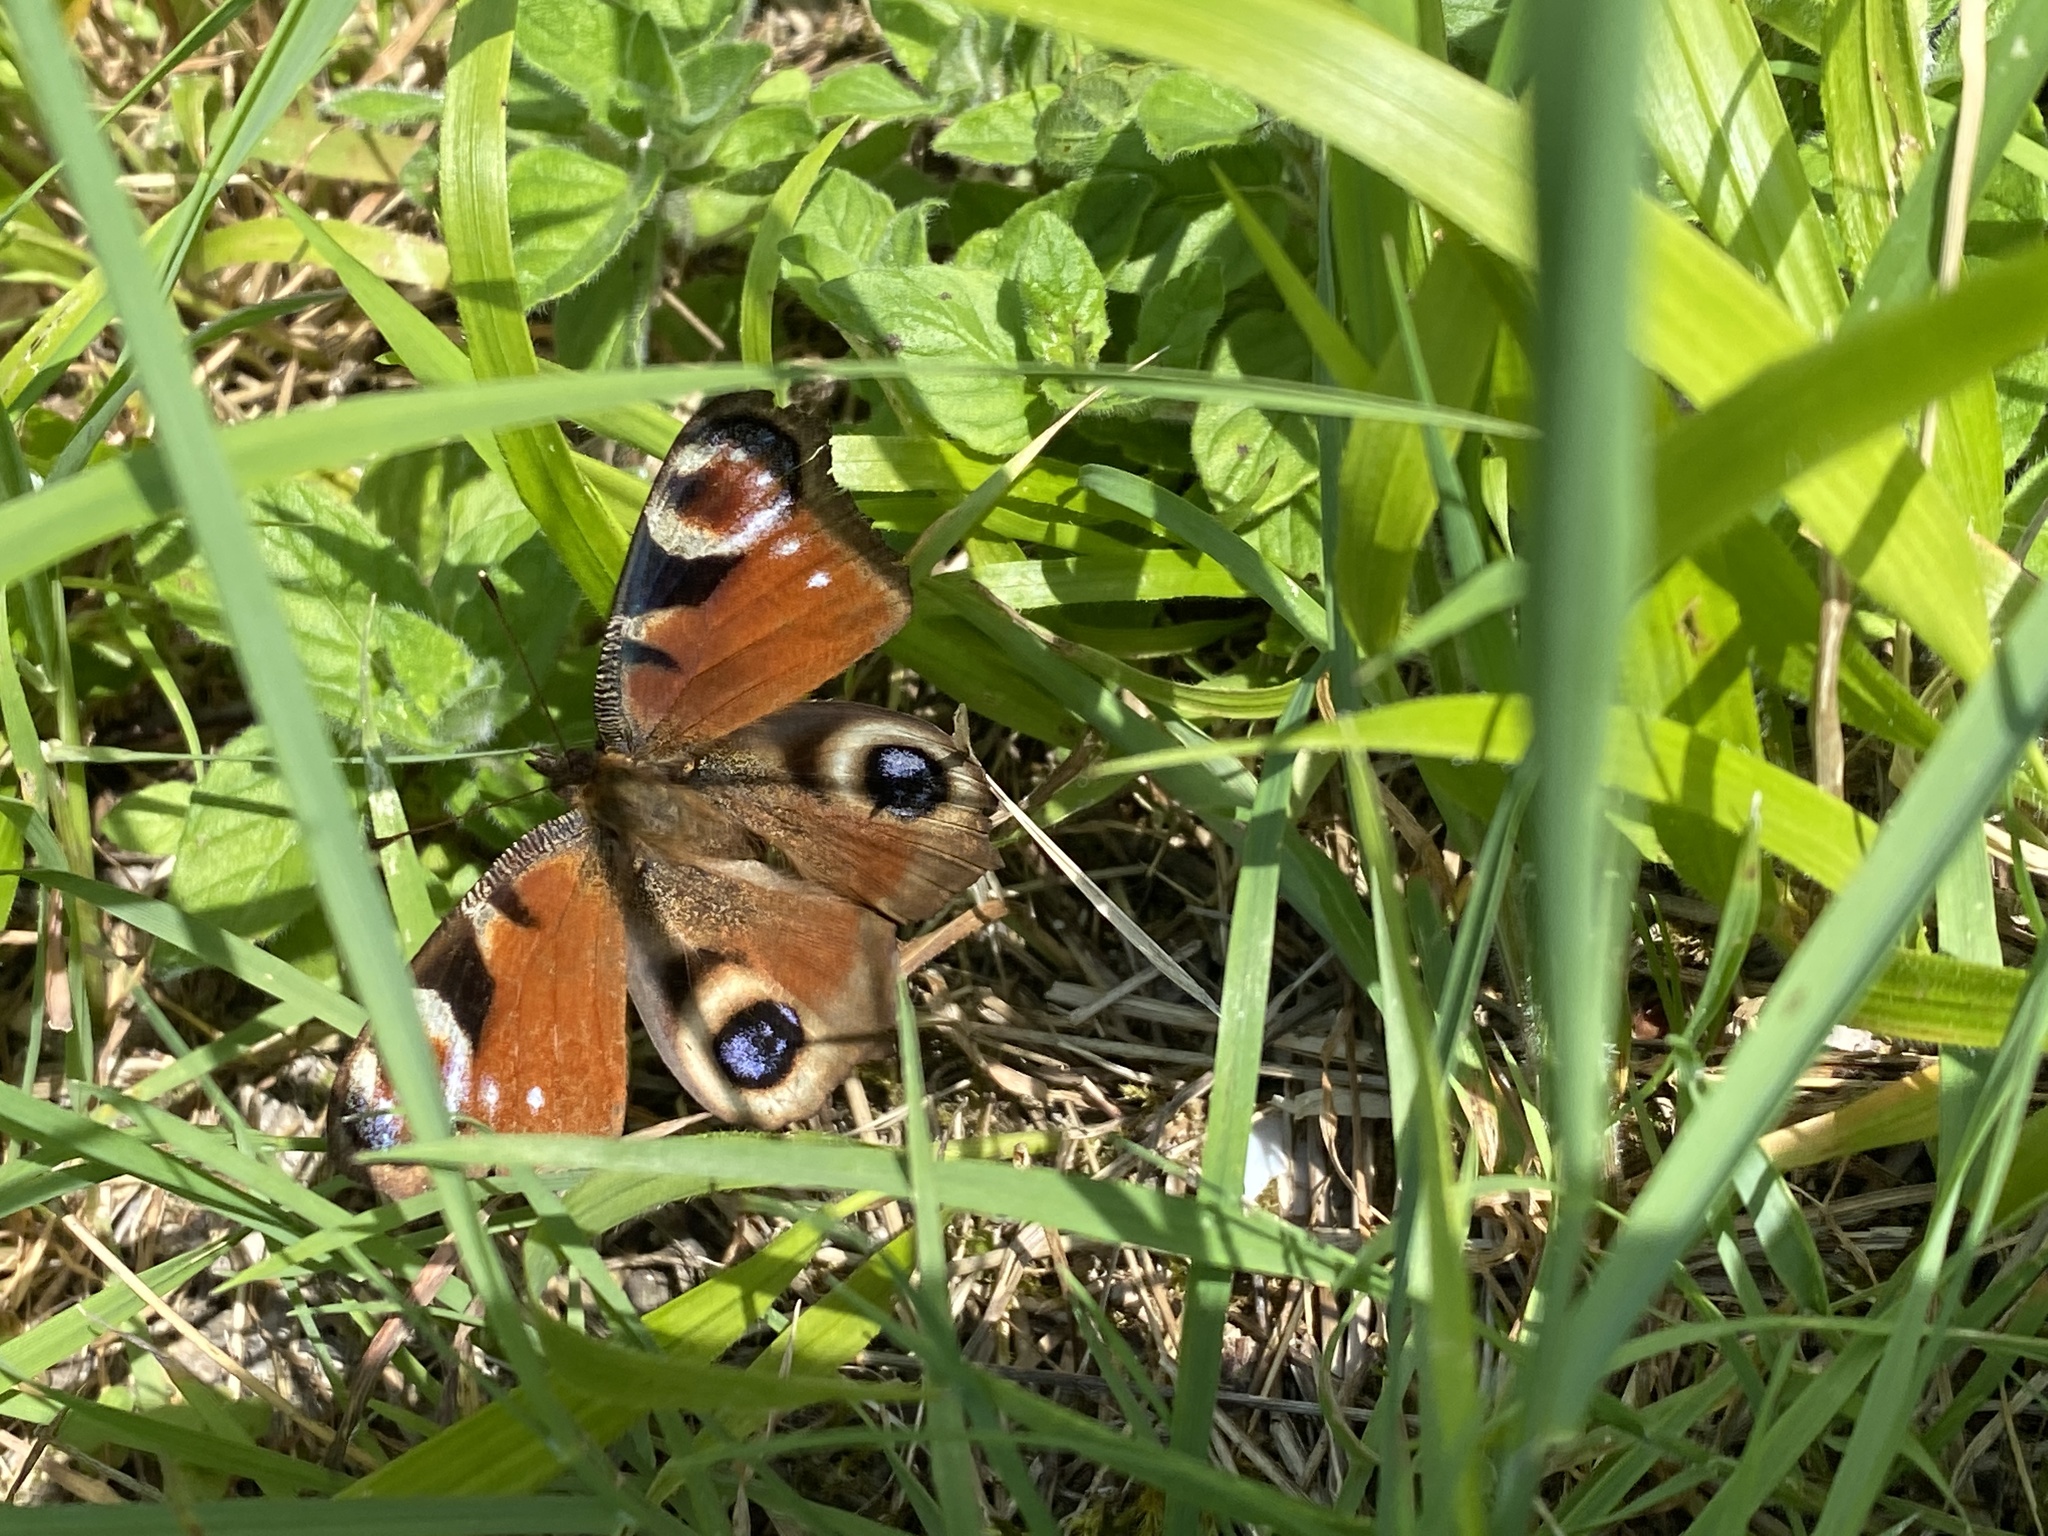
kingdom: Animalia
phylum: Arthropoda
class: Insecta
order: Lepidoptera
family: Nymphalidae
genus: Aglais
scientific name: Aglais io
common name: Peacock
